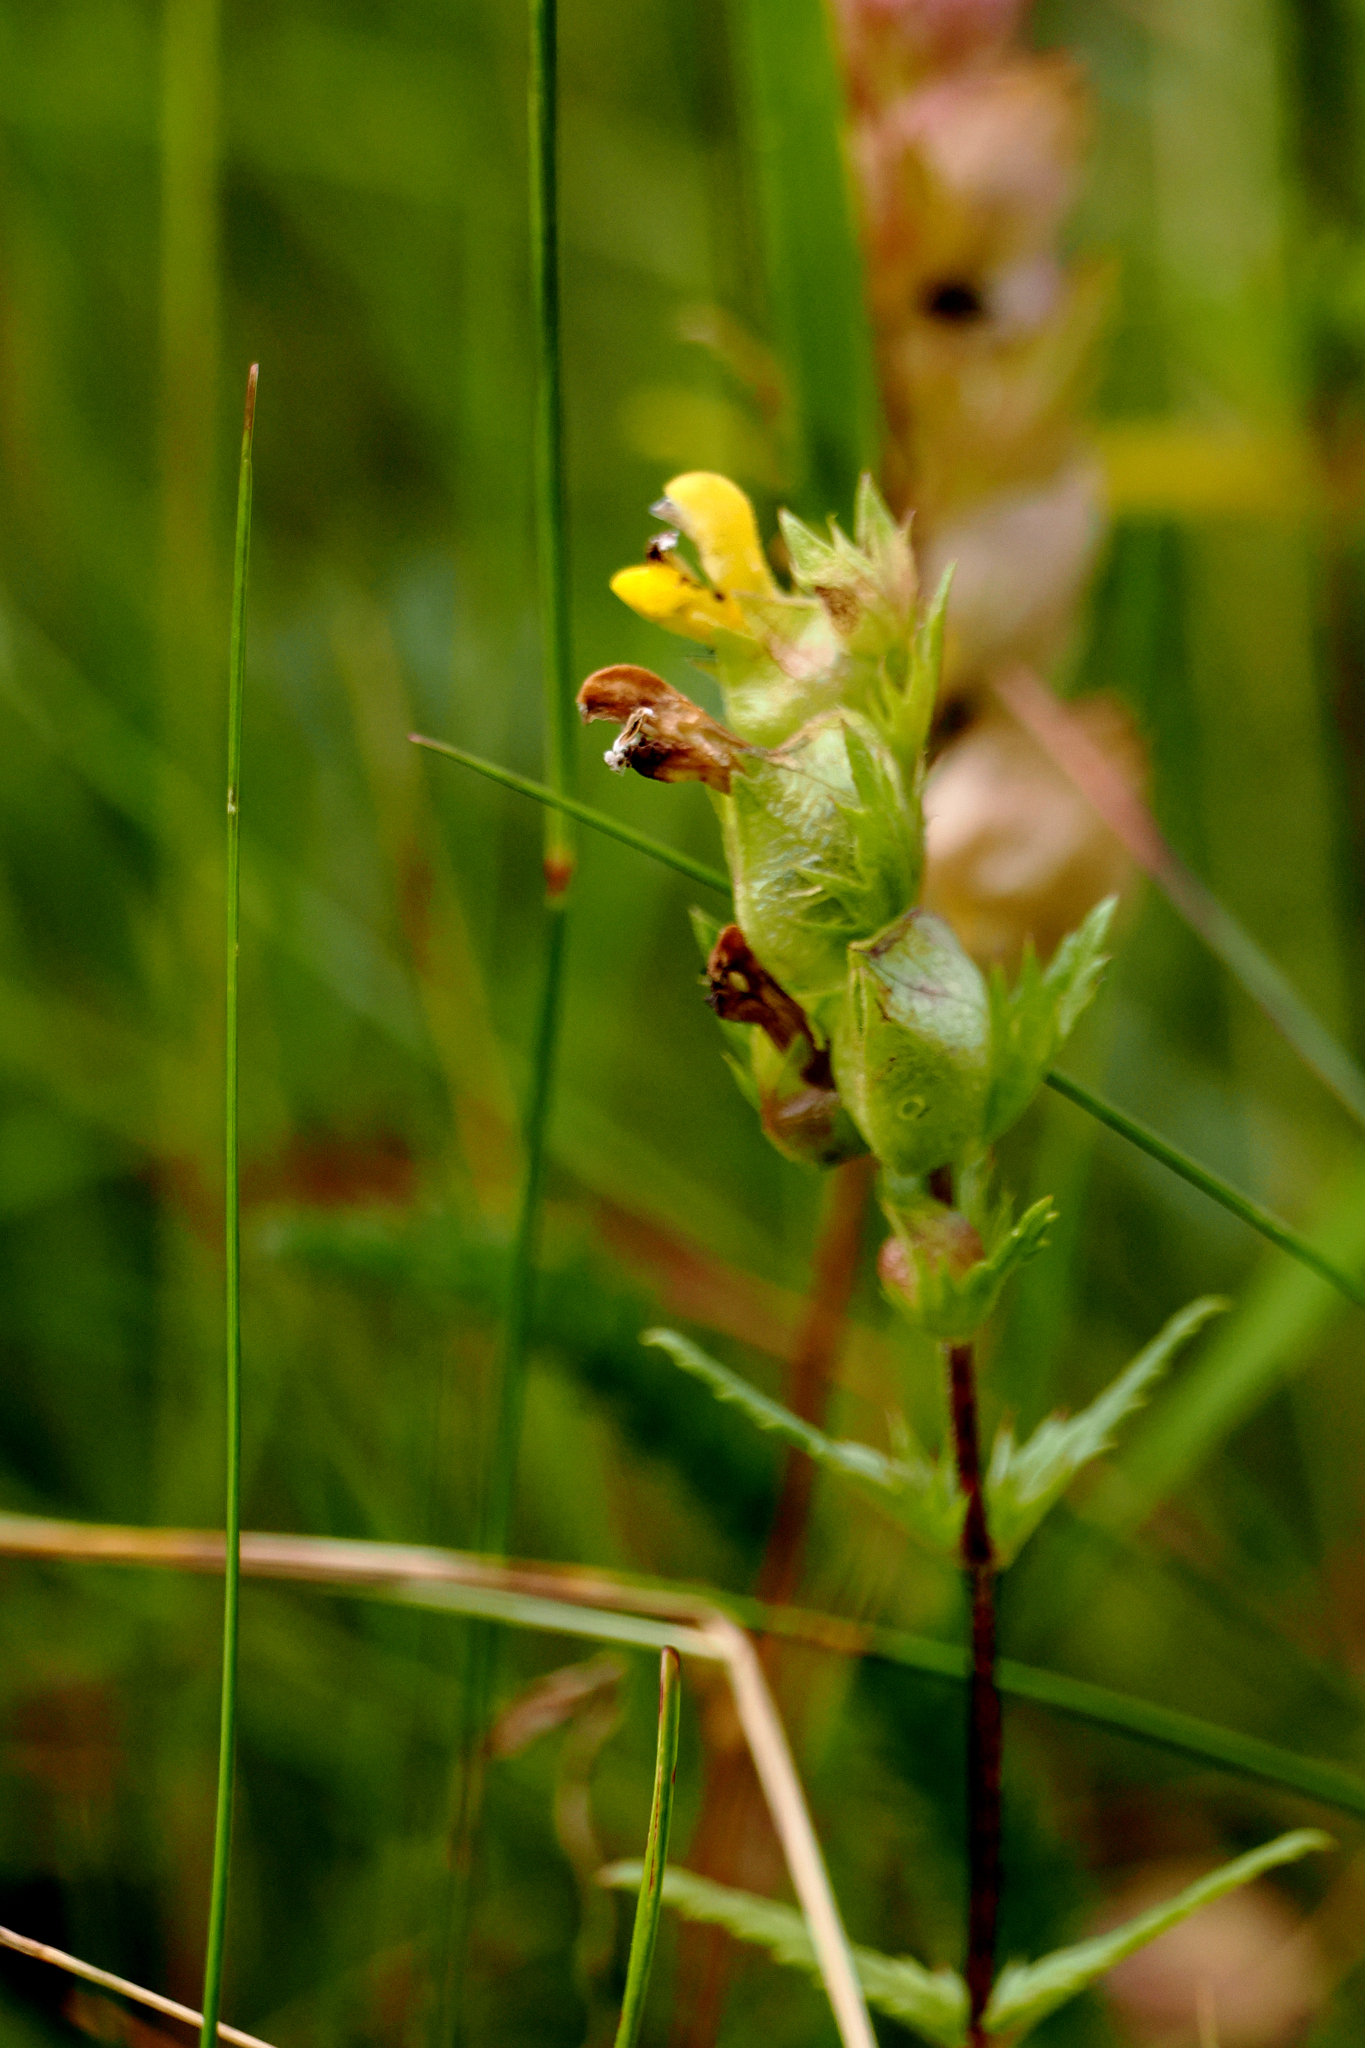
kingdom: Plantae
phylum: Tracheophyta
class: Magnoliopsida
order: Lamiales
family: Orobanchaceae
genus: Rhinanthus
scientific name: Rhinanthus minor
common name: Yellow-rattle
